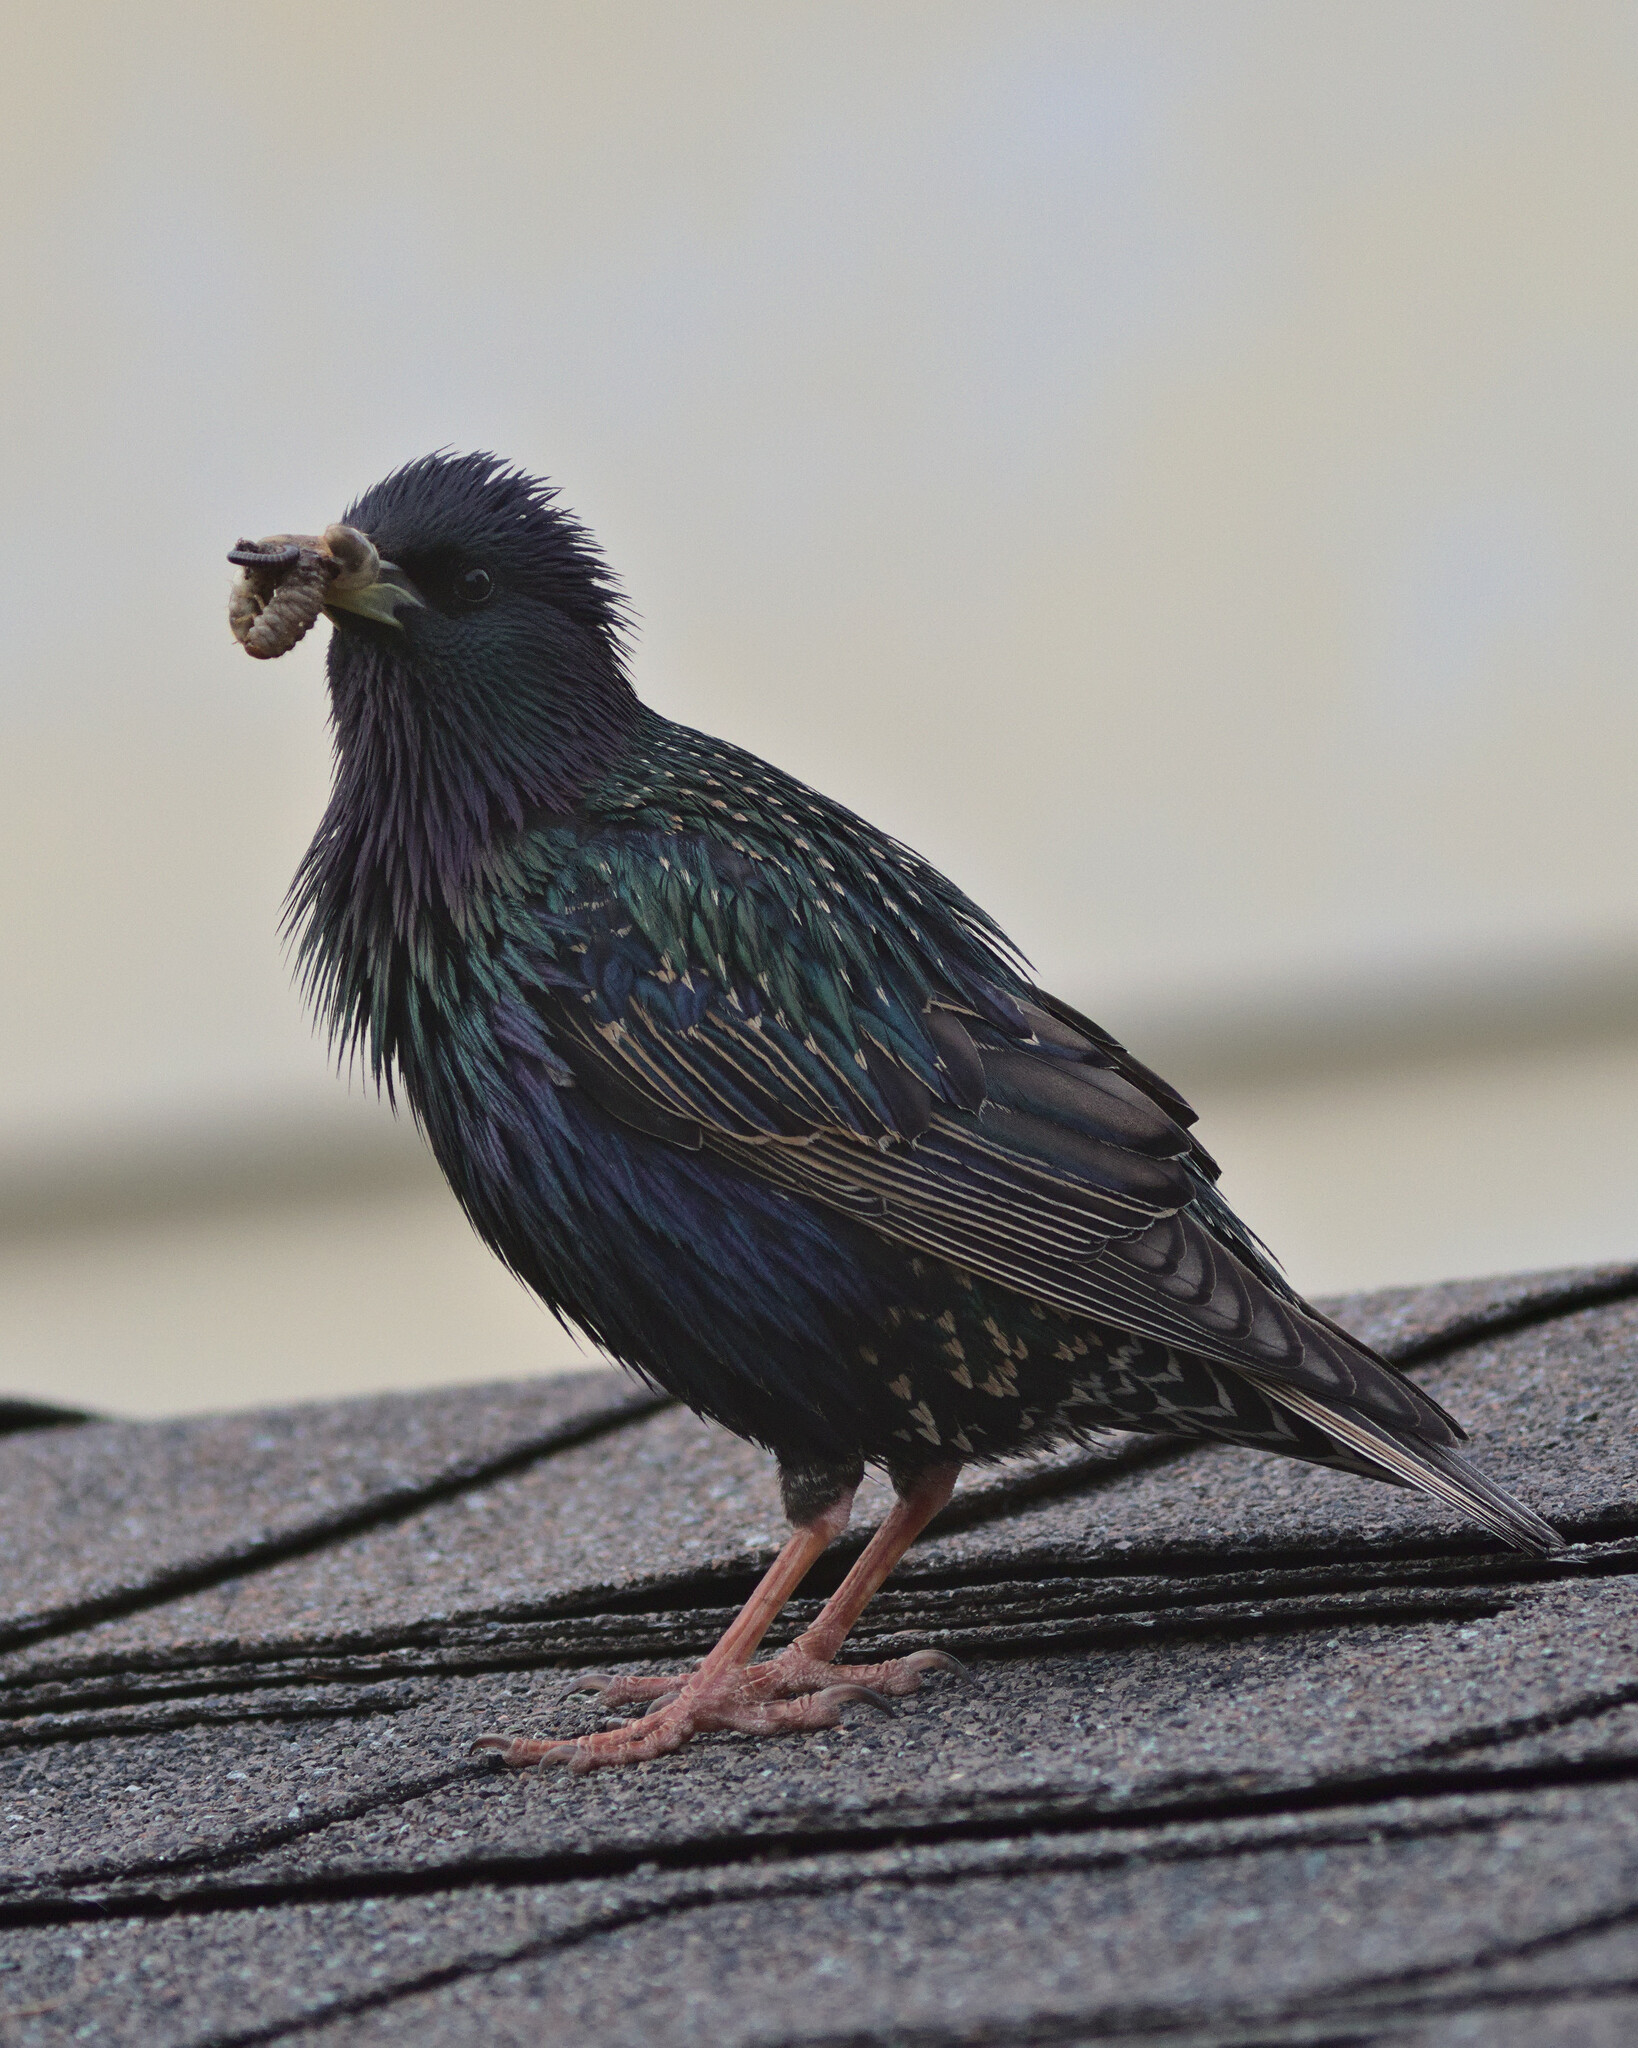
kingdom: Animalia
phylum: Chordata
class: Aves
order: Passeriformes
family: Sturnidae
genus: Sturnus
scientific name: Sturnus vulgaris
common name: Common starling
